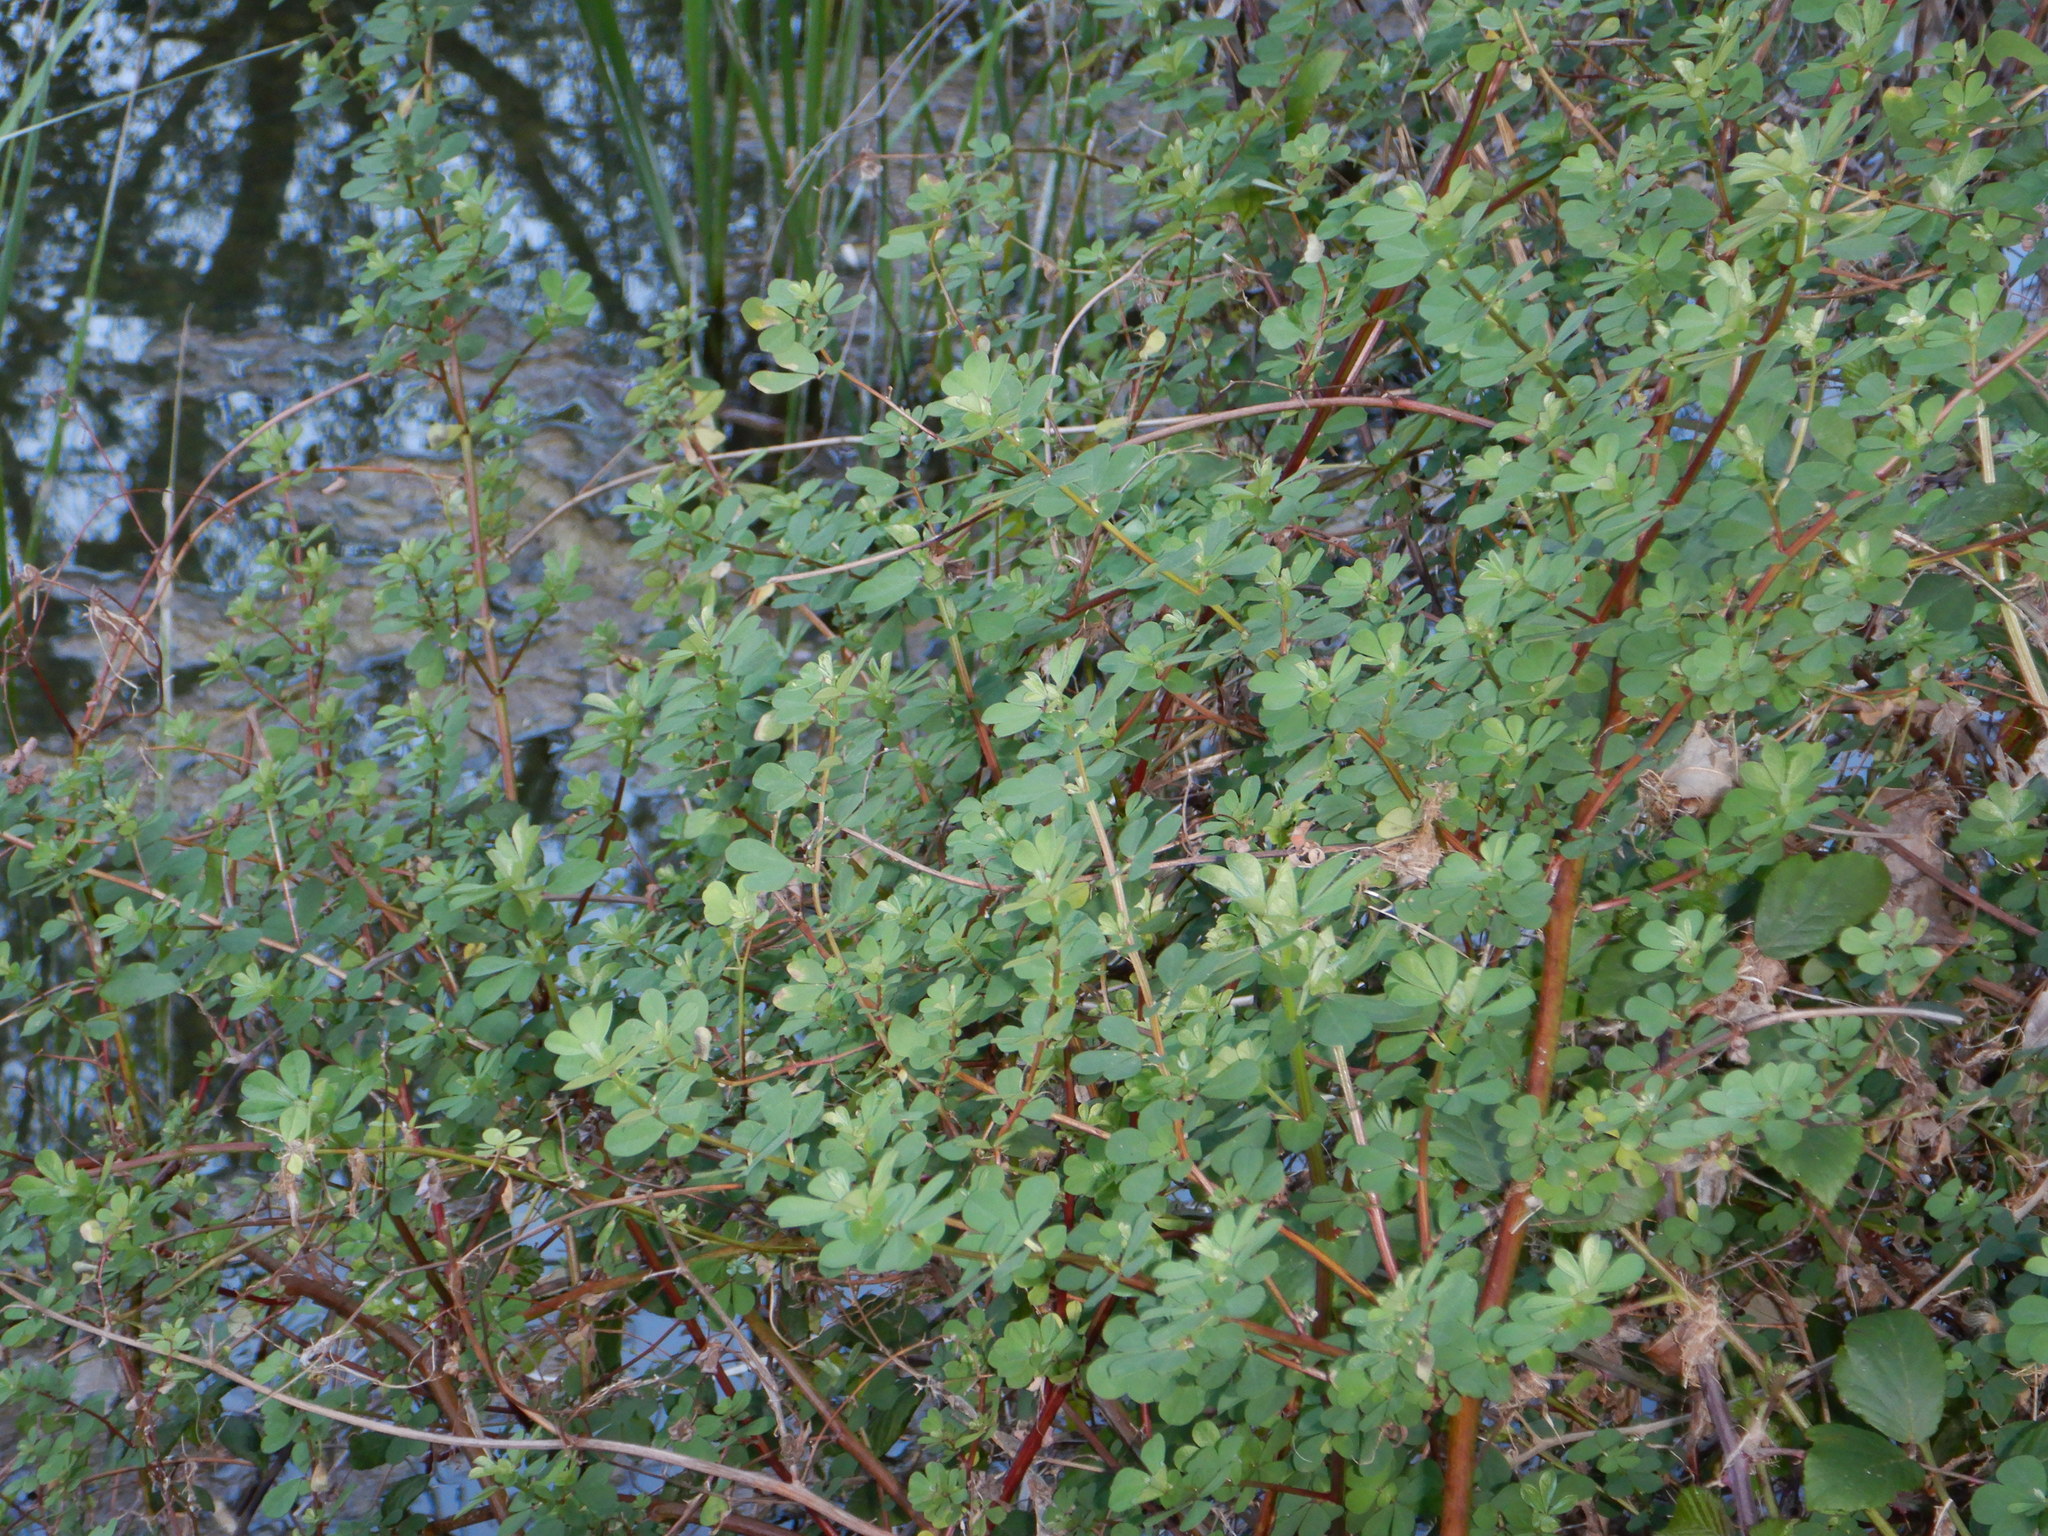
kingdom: Plantae
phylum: Tracheophyta
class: Magnoliopsida
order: Fabales
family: Fabaceae
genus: Lotus
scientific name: Lotus rectus
